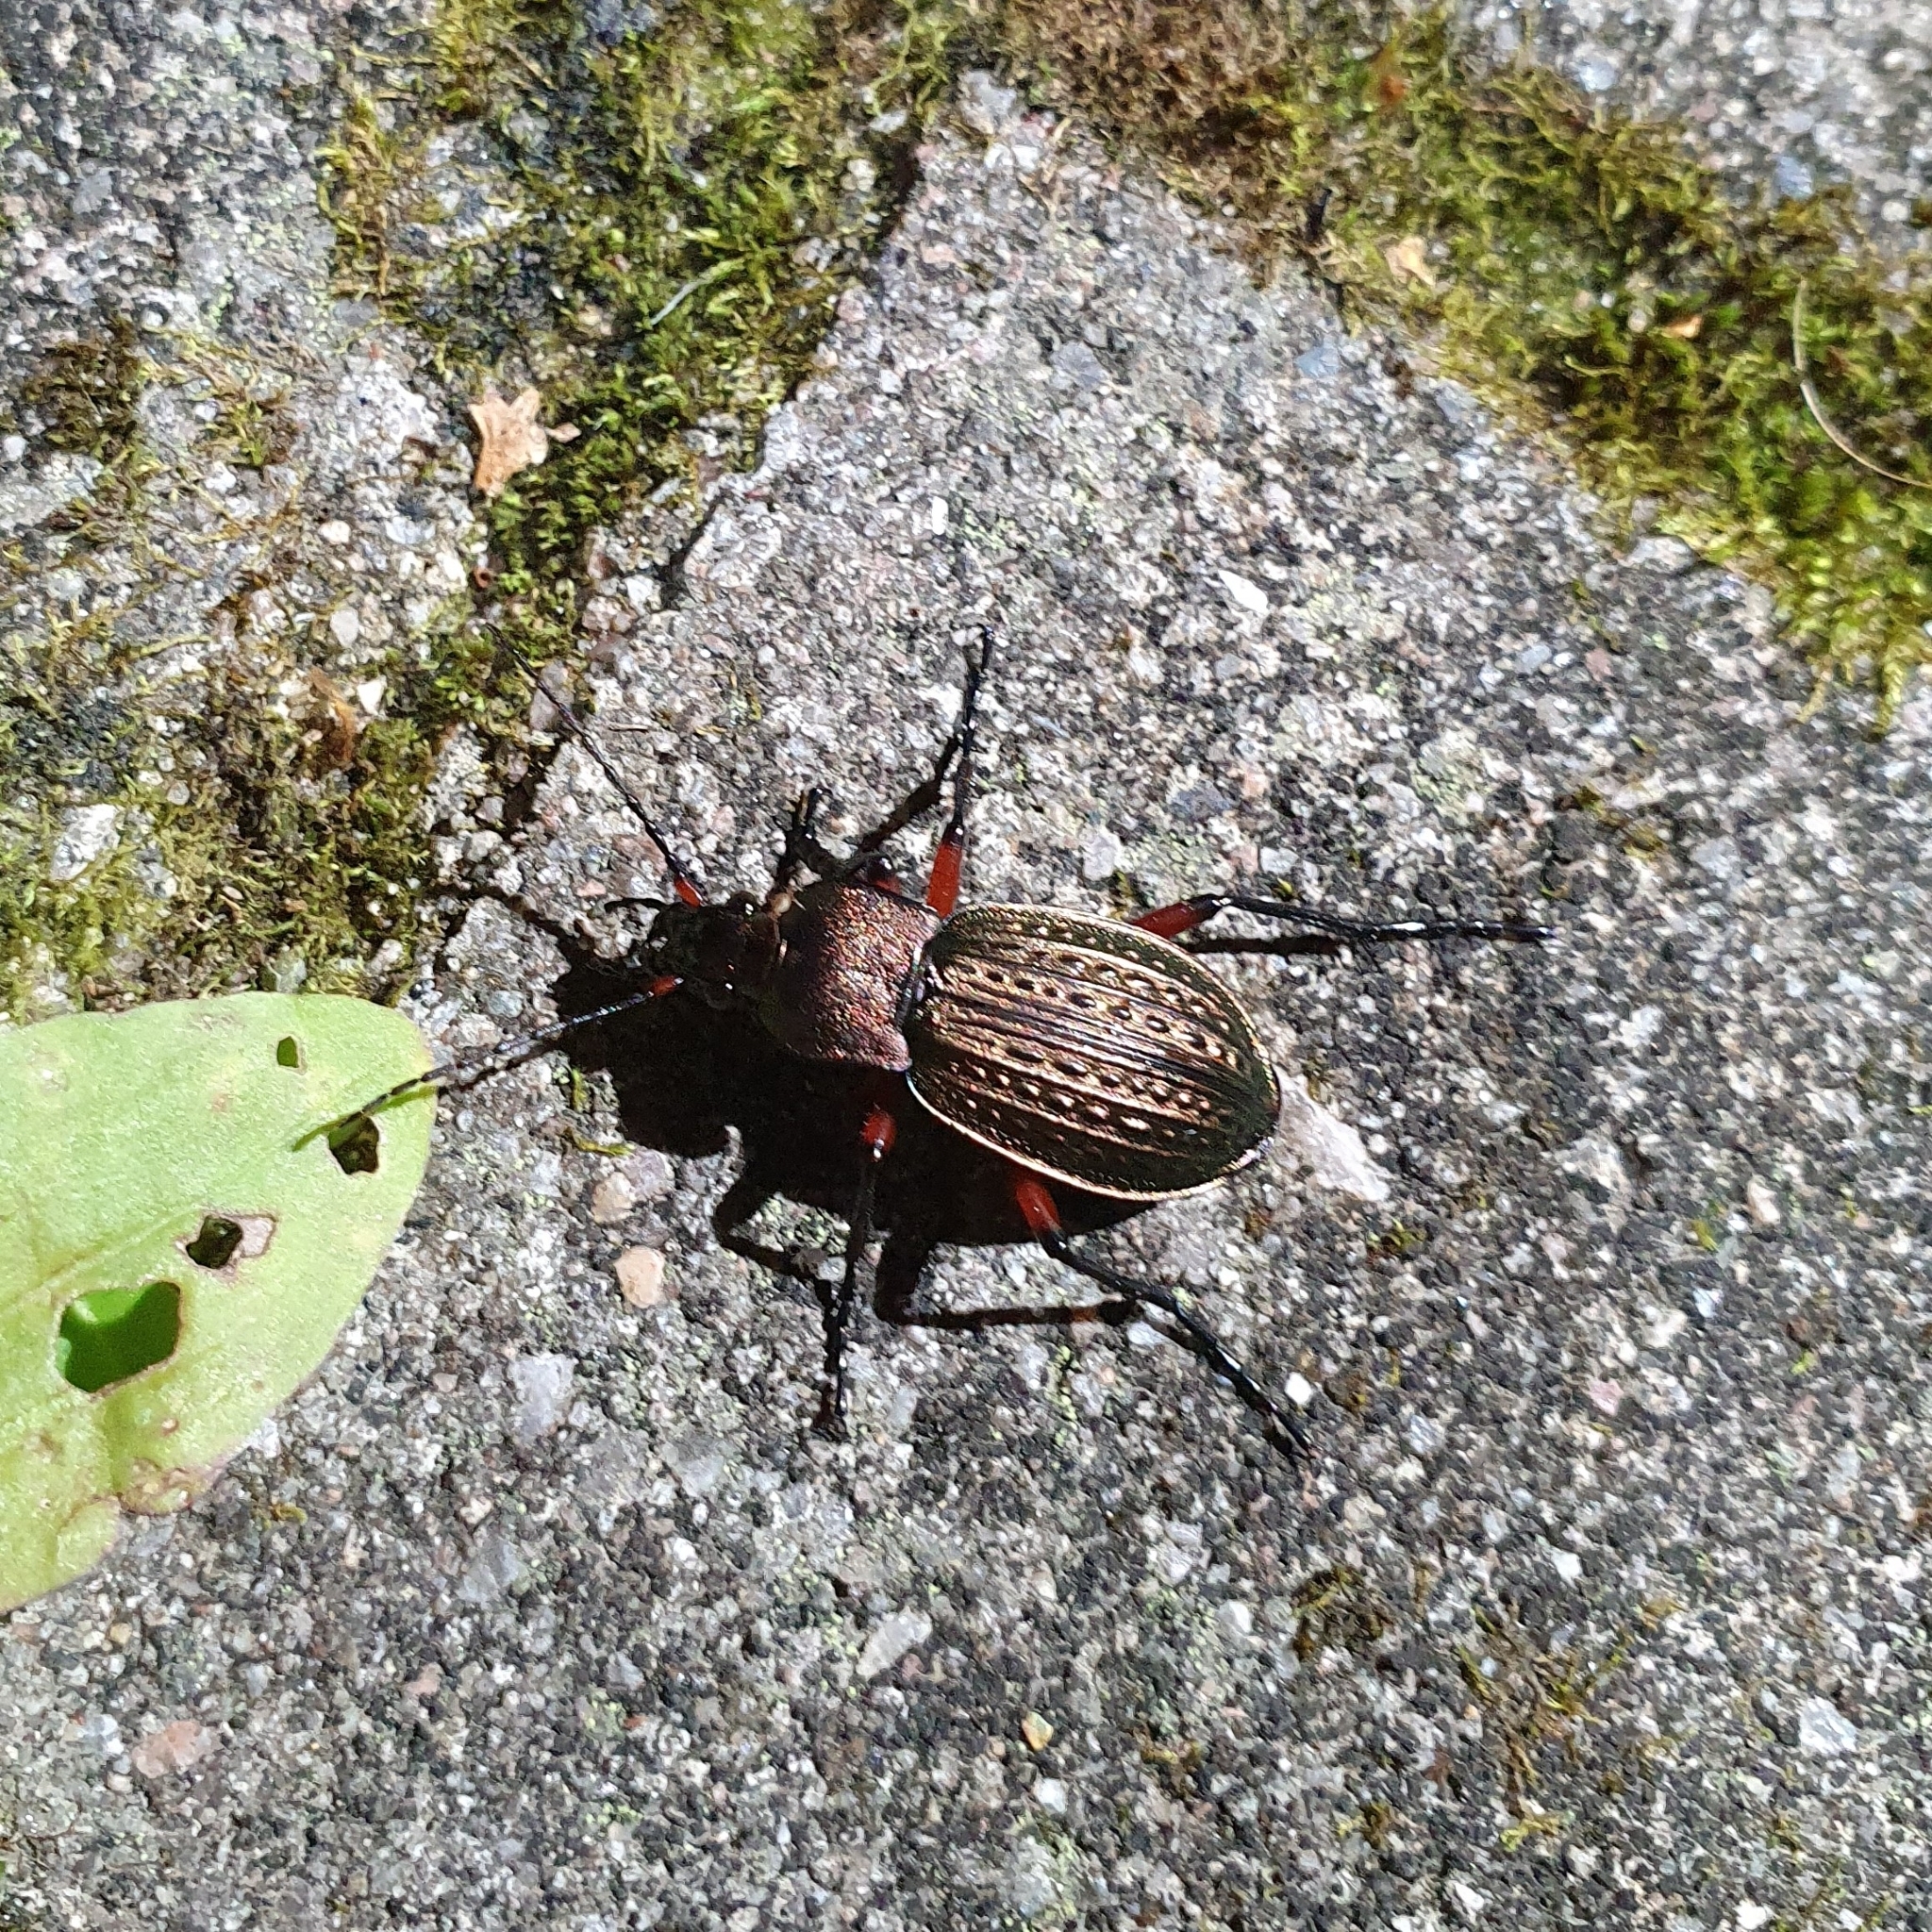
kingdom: Animalia
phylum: Arthropoda
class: Insecta
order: Coleoptera
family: Carabidae
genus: Carabus
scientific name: Carabus cancellatus
